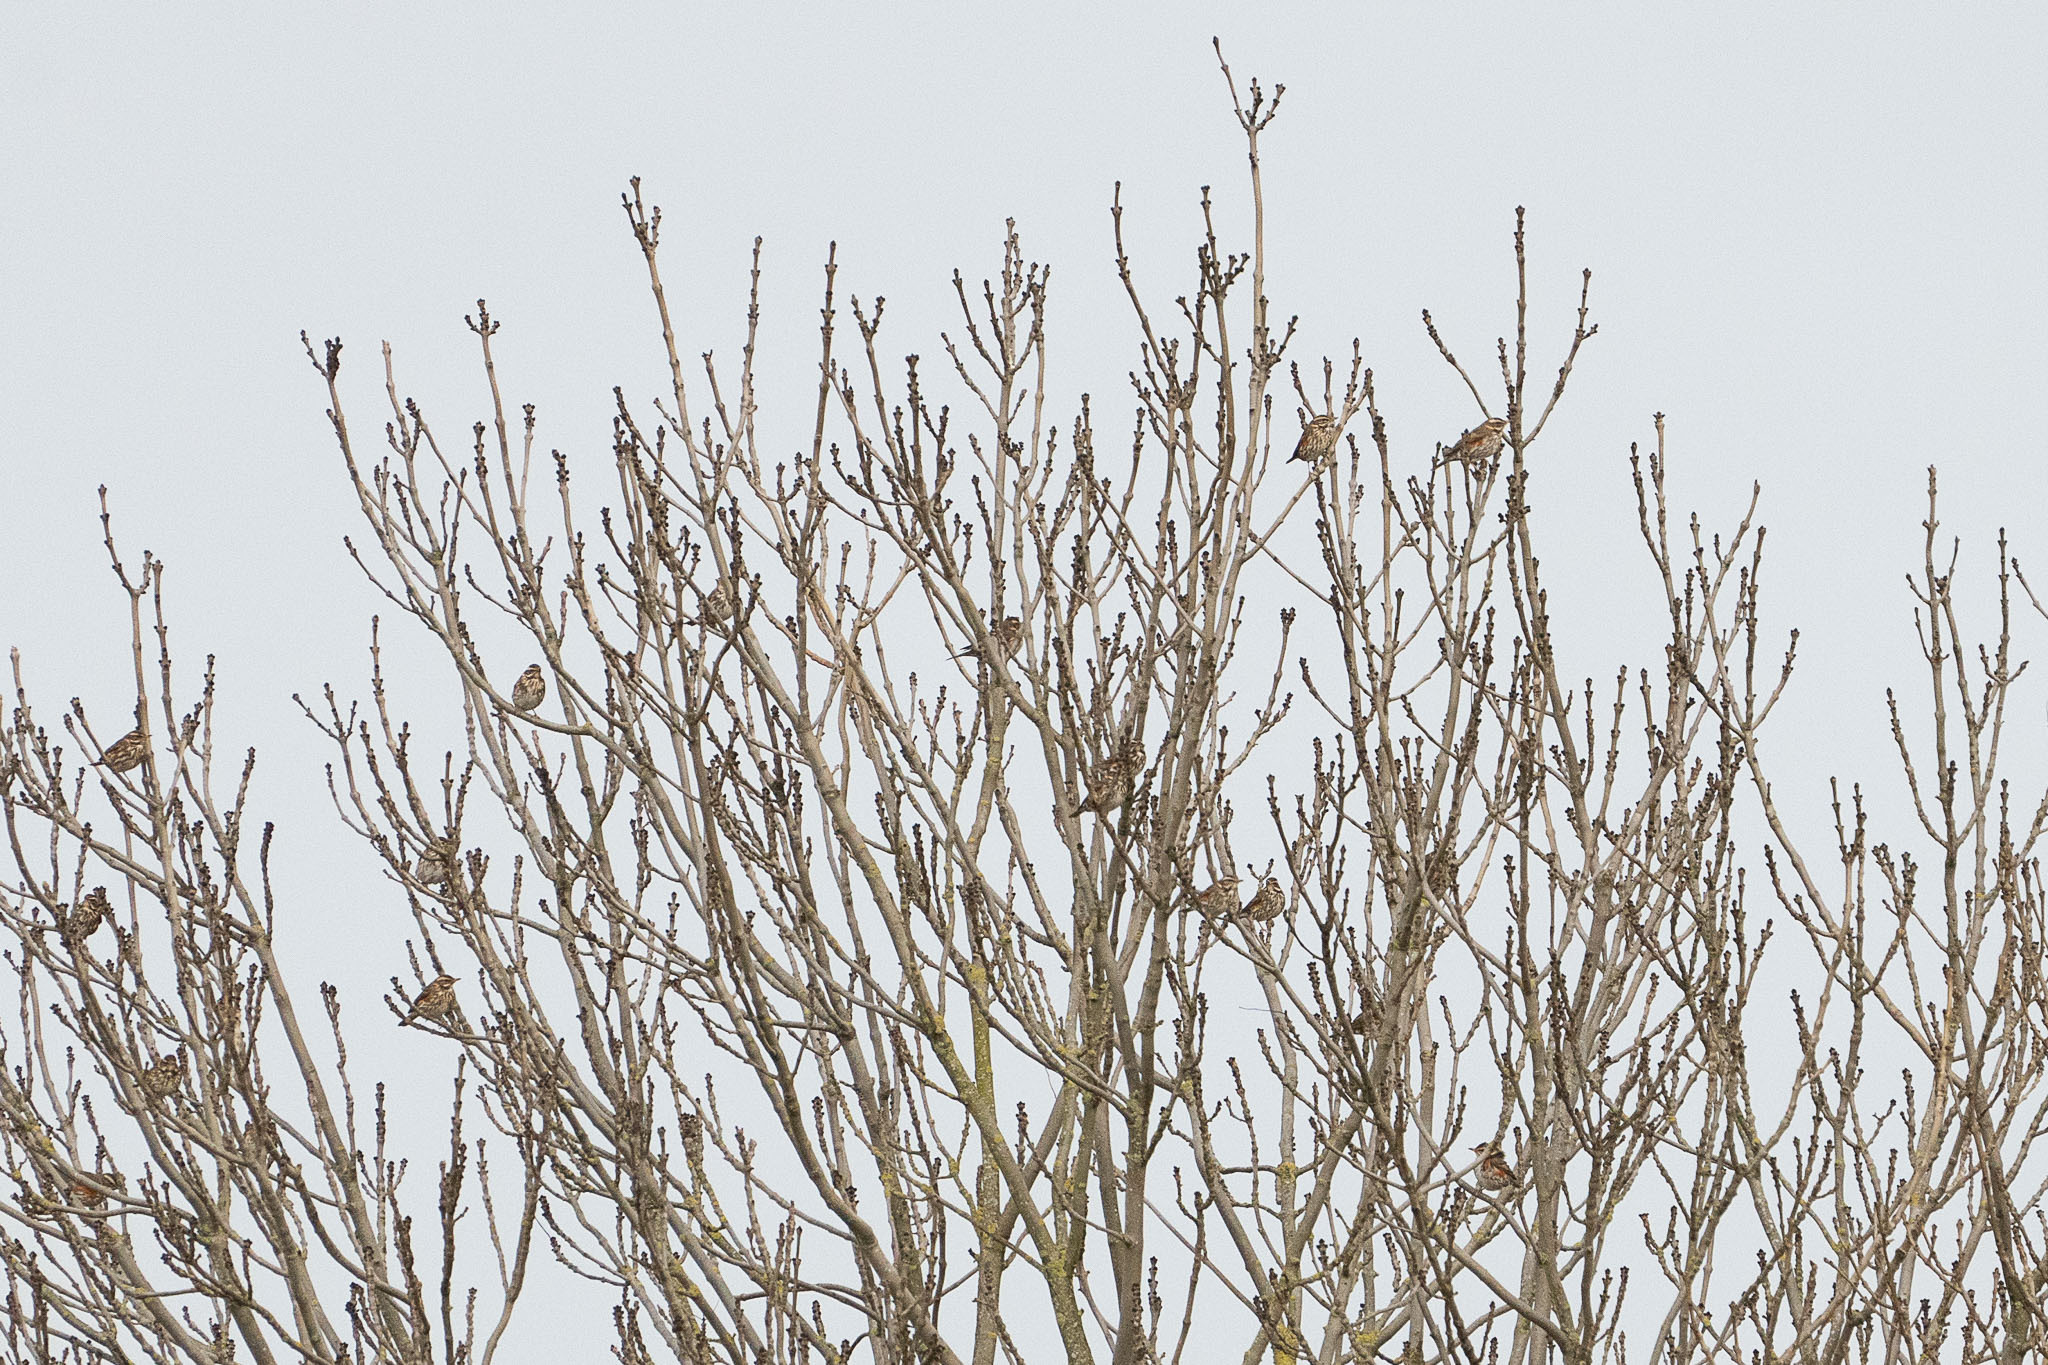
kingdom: Animalia
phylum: Chordata
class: Aves
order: Passeriformes
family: Turdidae
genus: Turdus
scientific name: Turdus iliacus
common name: Redwing
